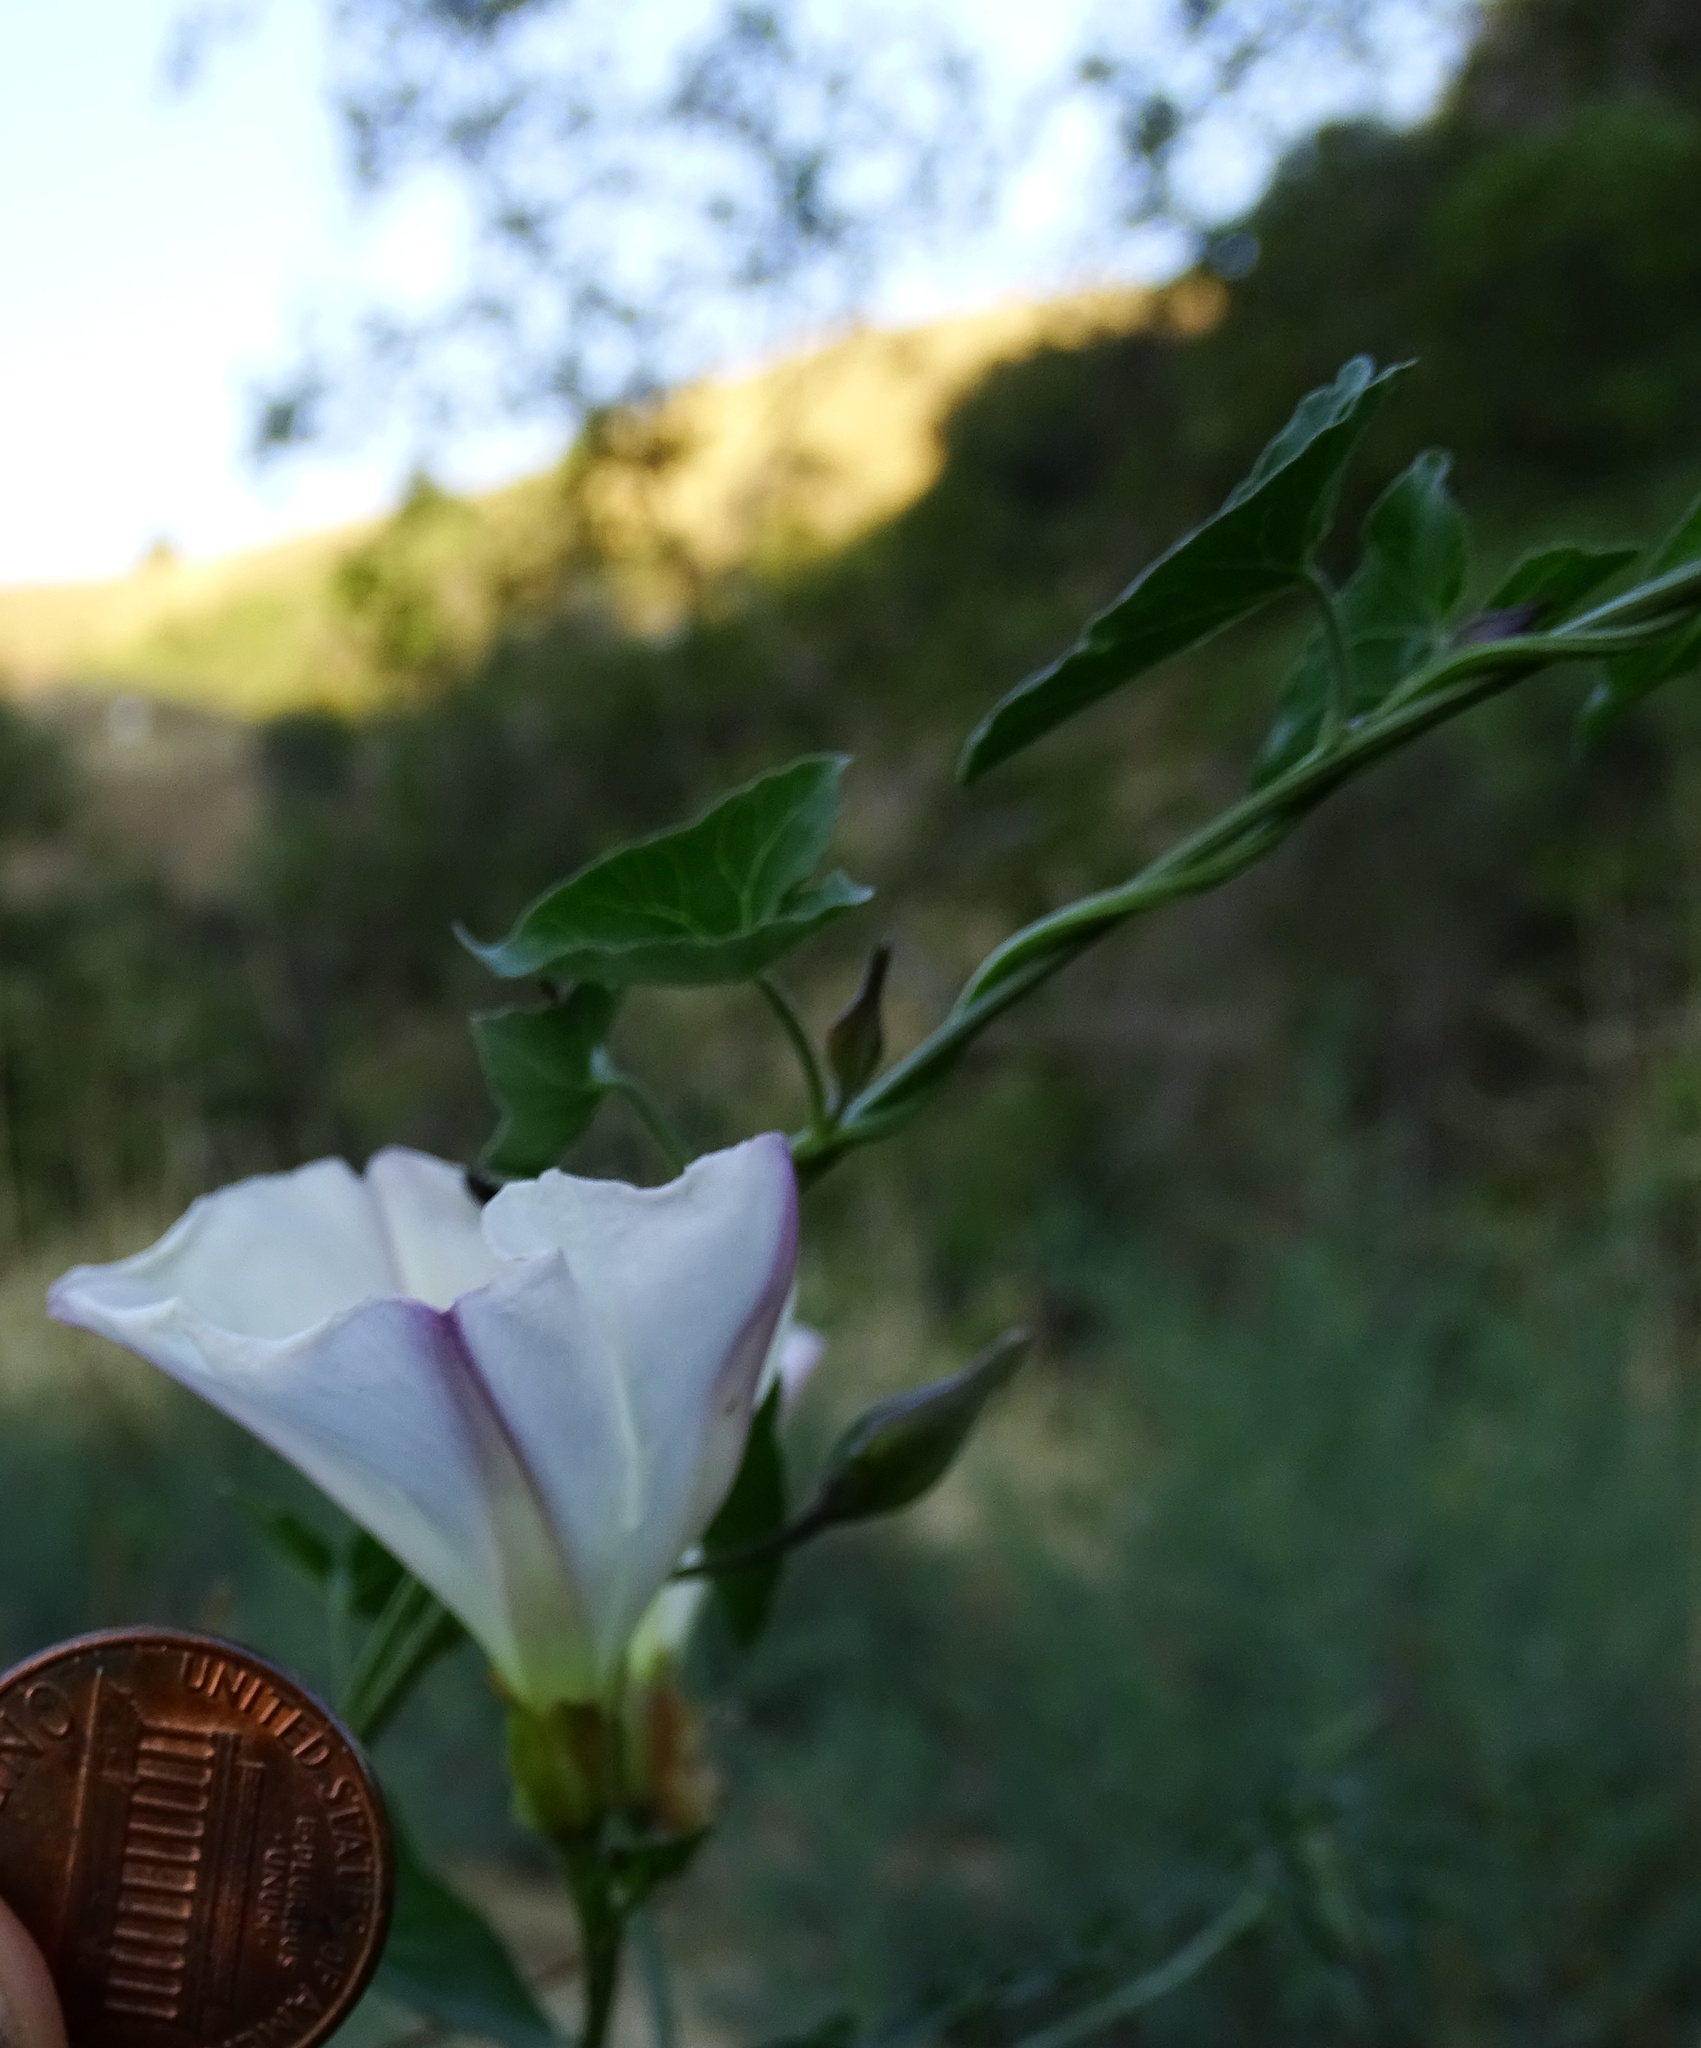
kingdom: Plantae
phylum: Tracheophyta
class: Magnoliopsida
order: Solanales
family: Convolvulaceae
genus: Calystegia
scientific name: Calystegia macrostegia
